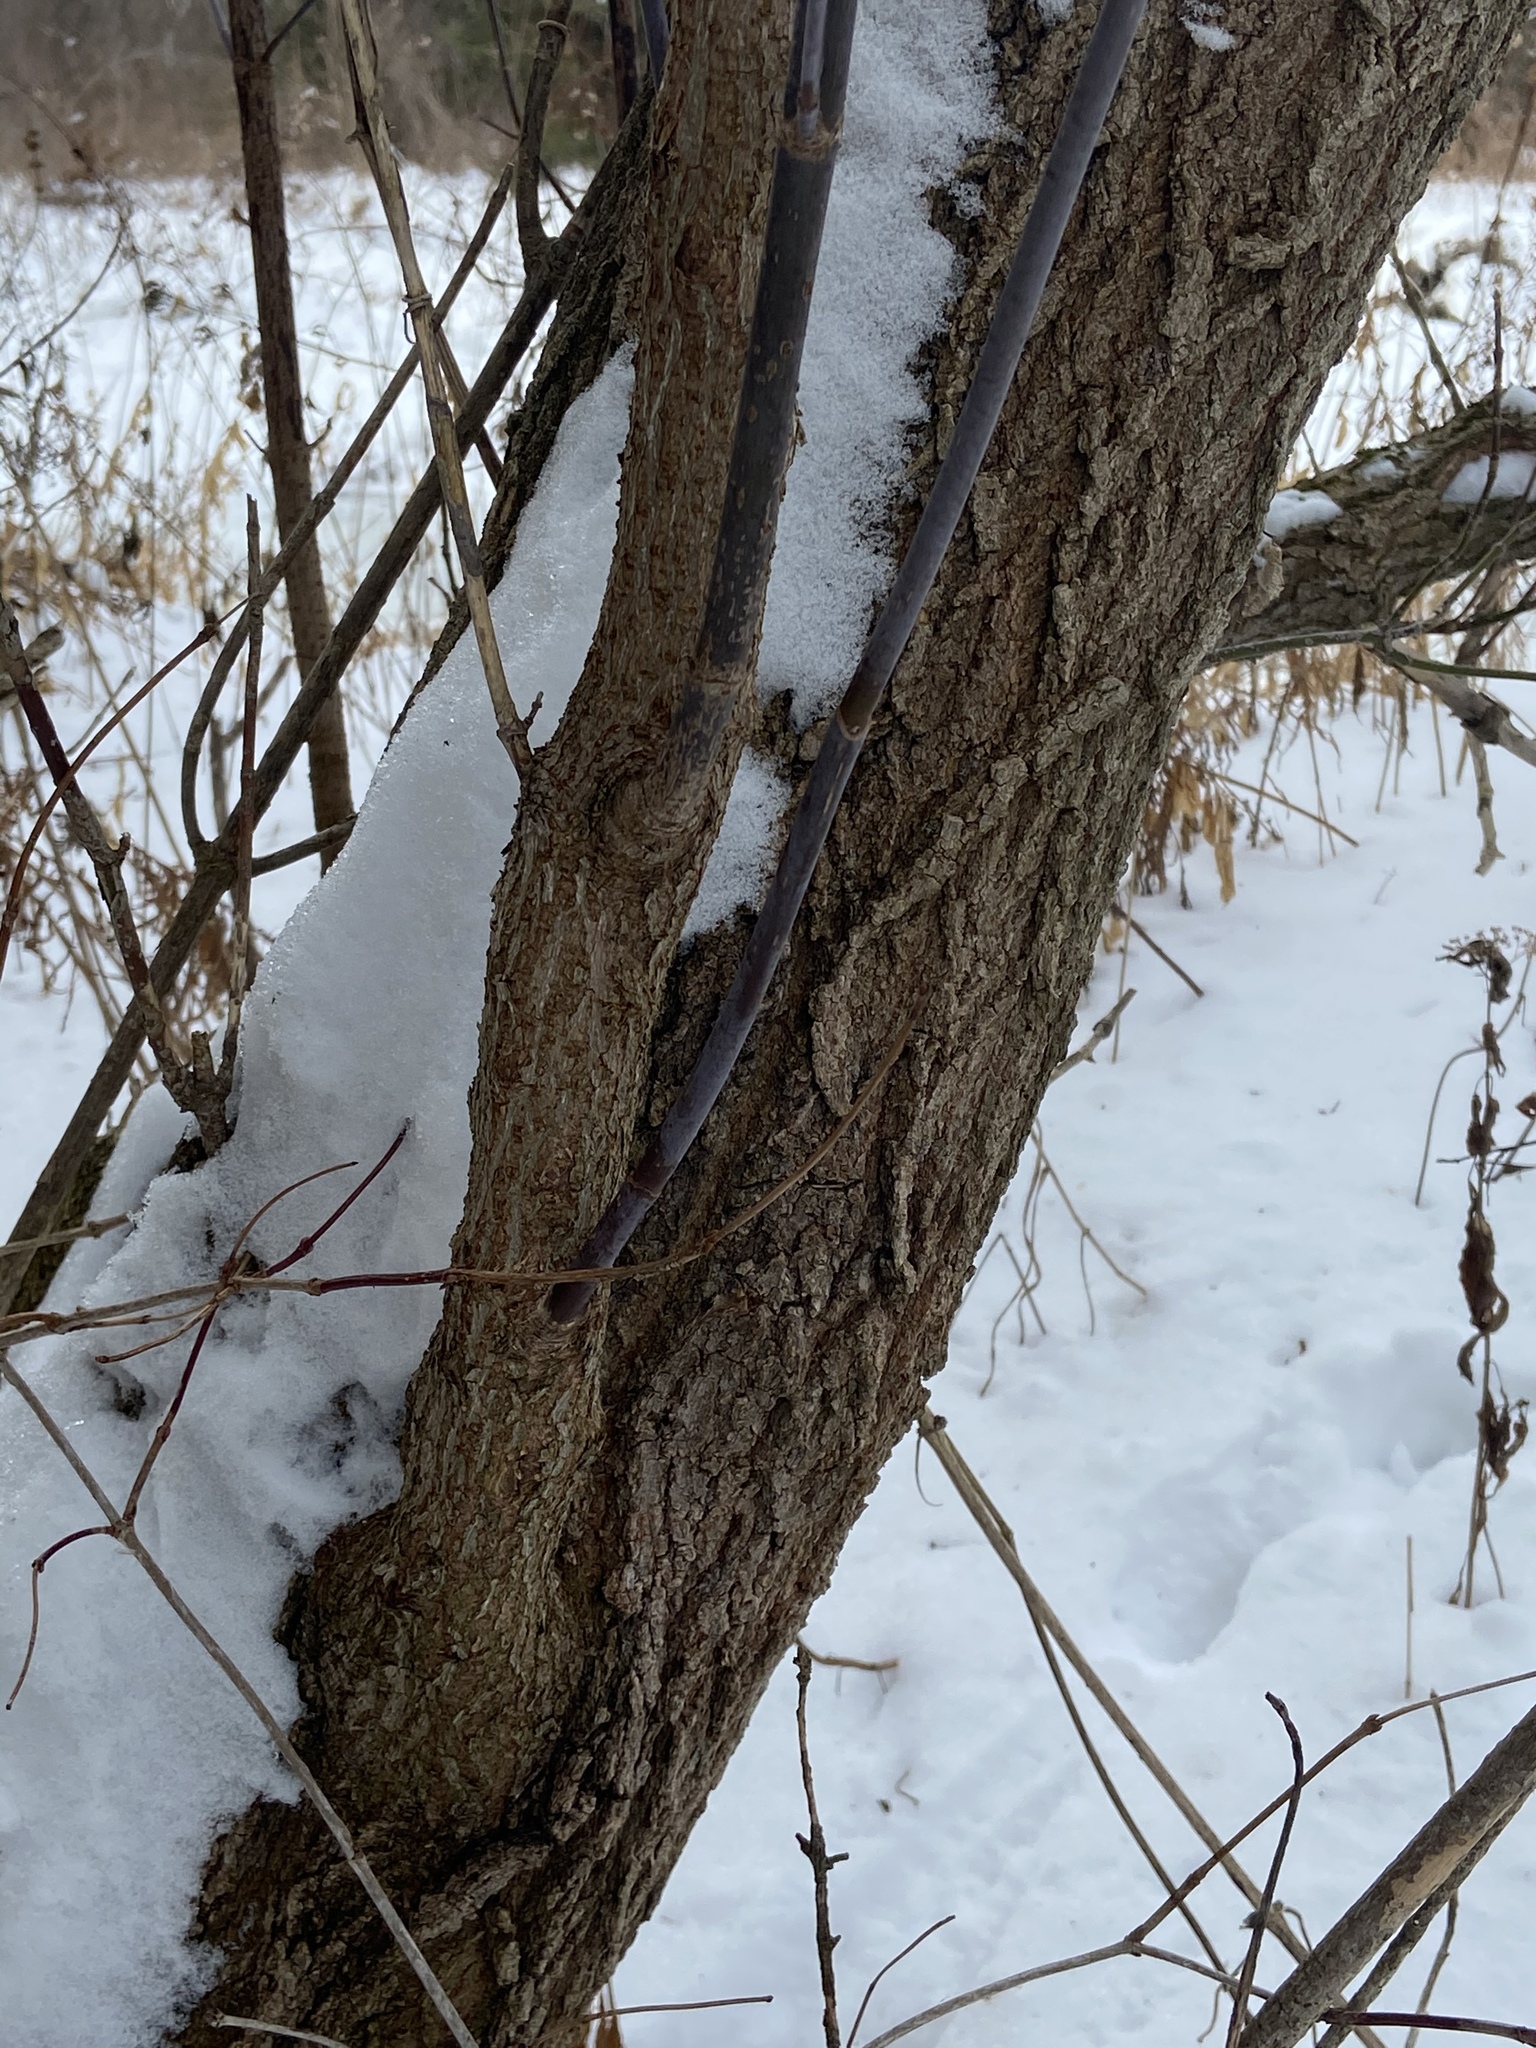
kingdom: Plantae
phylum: Tracheophyta
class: Magnoliopsida
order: Sapindales
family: Sapindaceae
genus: Acer
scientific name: Acer negundo
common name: Ashleaf maple
